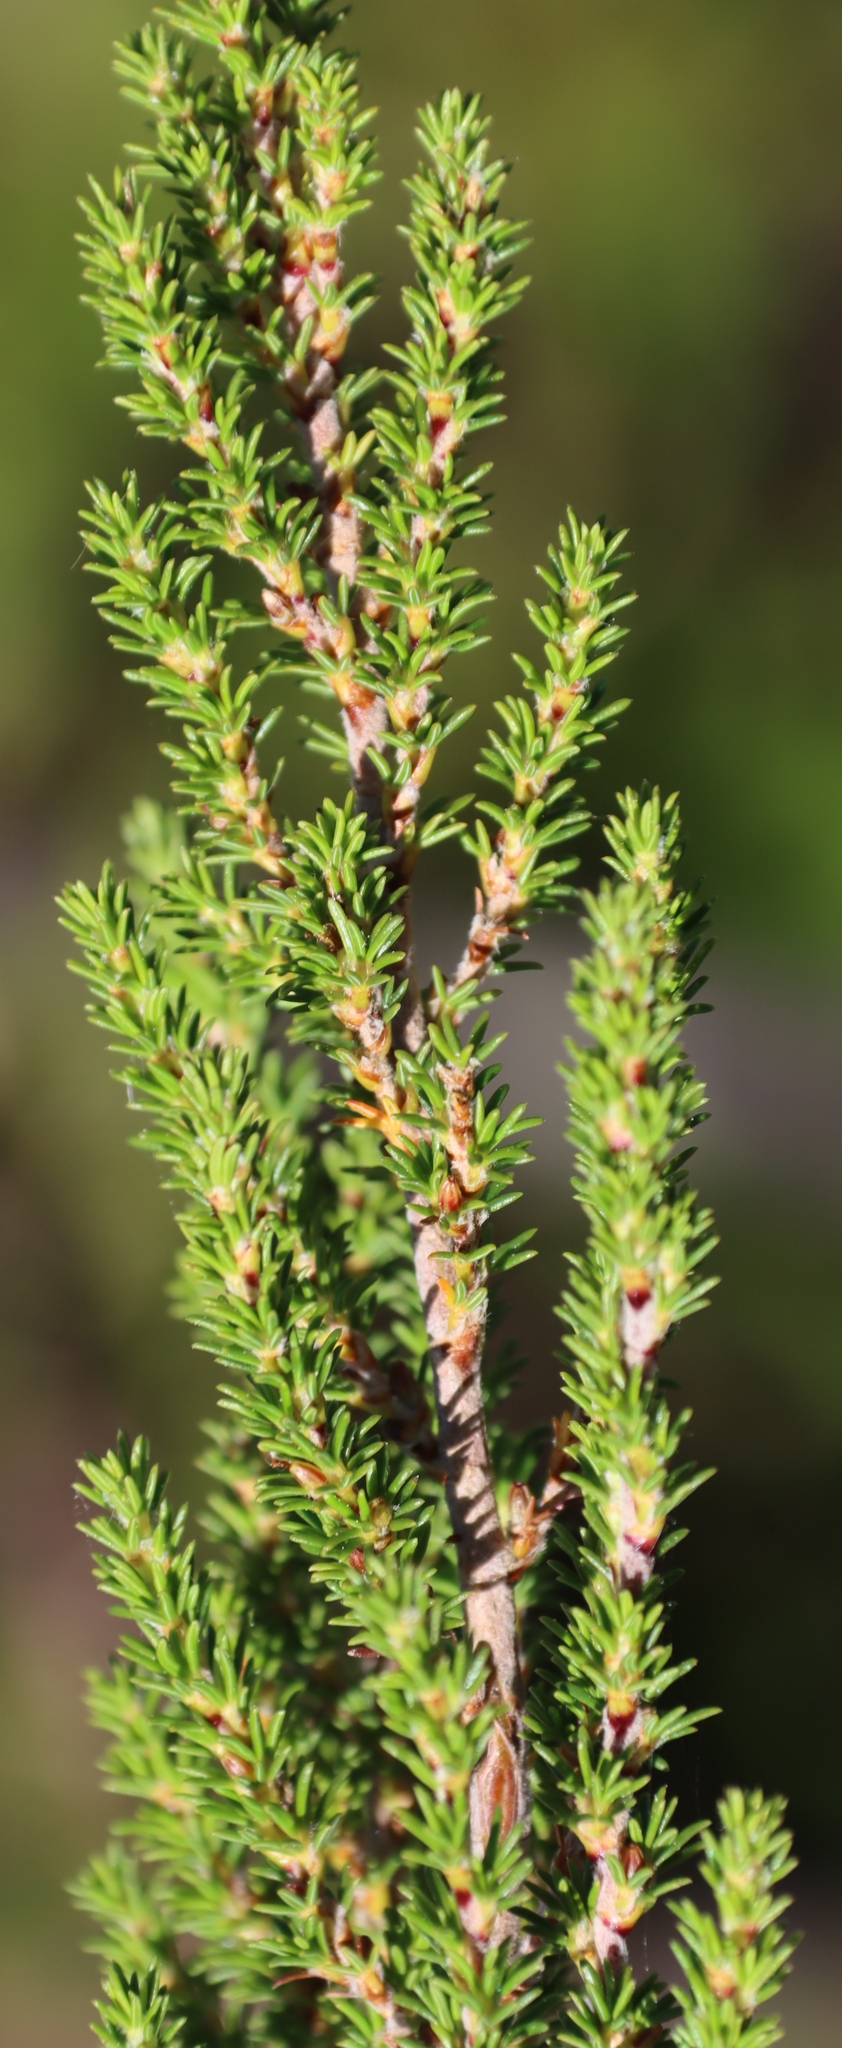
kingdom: Plantae
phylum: Tracheophyta
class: Magnoliopsida
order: Rosales
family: Rosaceae
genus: Cliffortia
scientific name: Cliffortia linearifolia
